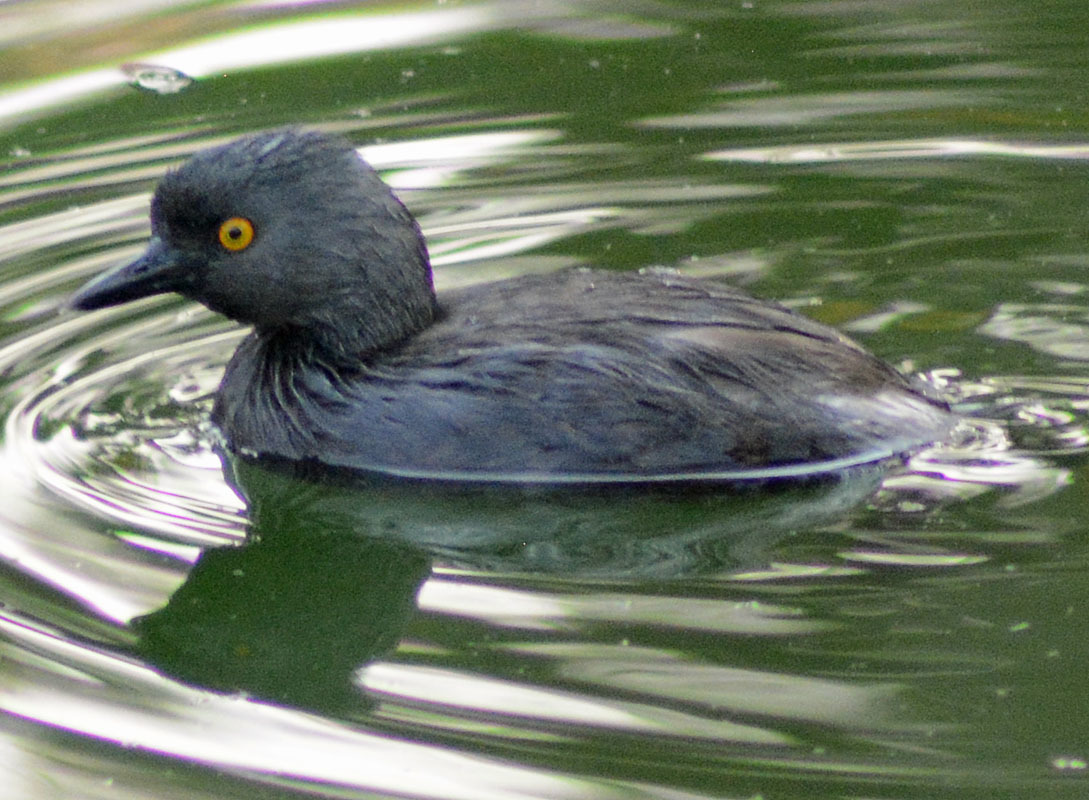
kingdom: Animalia
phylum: Chordata
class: Aves
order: Podicipediformes
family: Podicipedidae
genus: Tachybaptus
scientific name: Tachybaptus dominicus
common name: Least grebe
